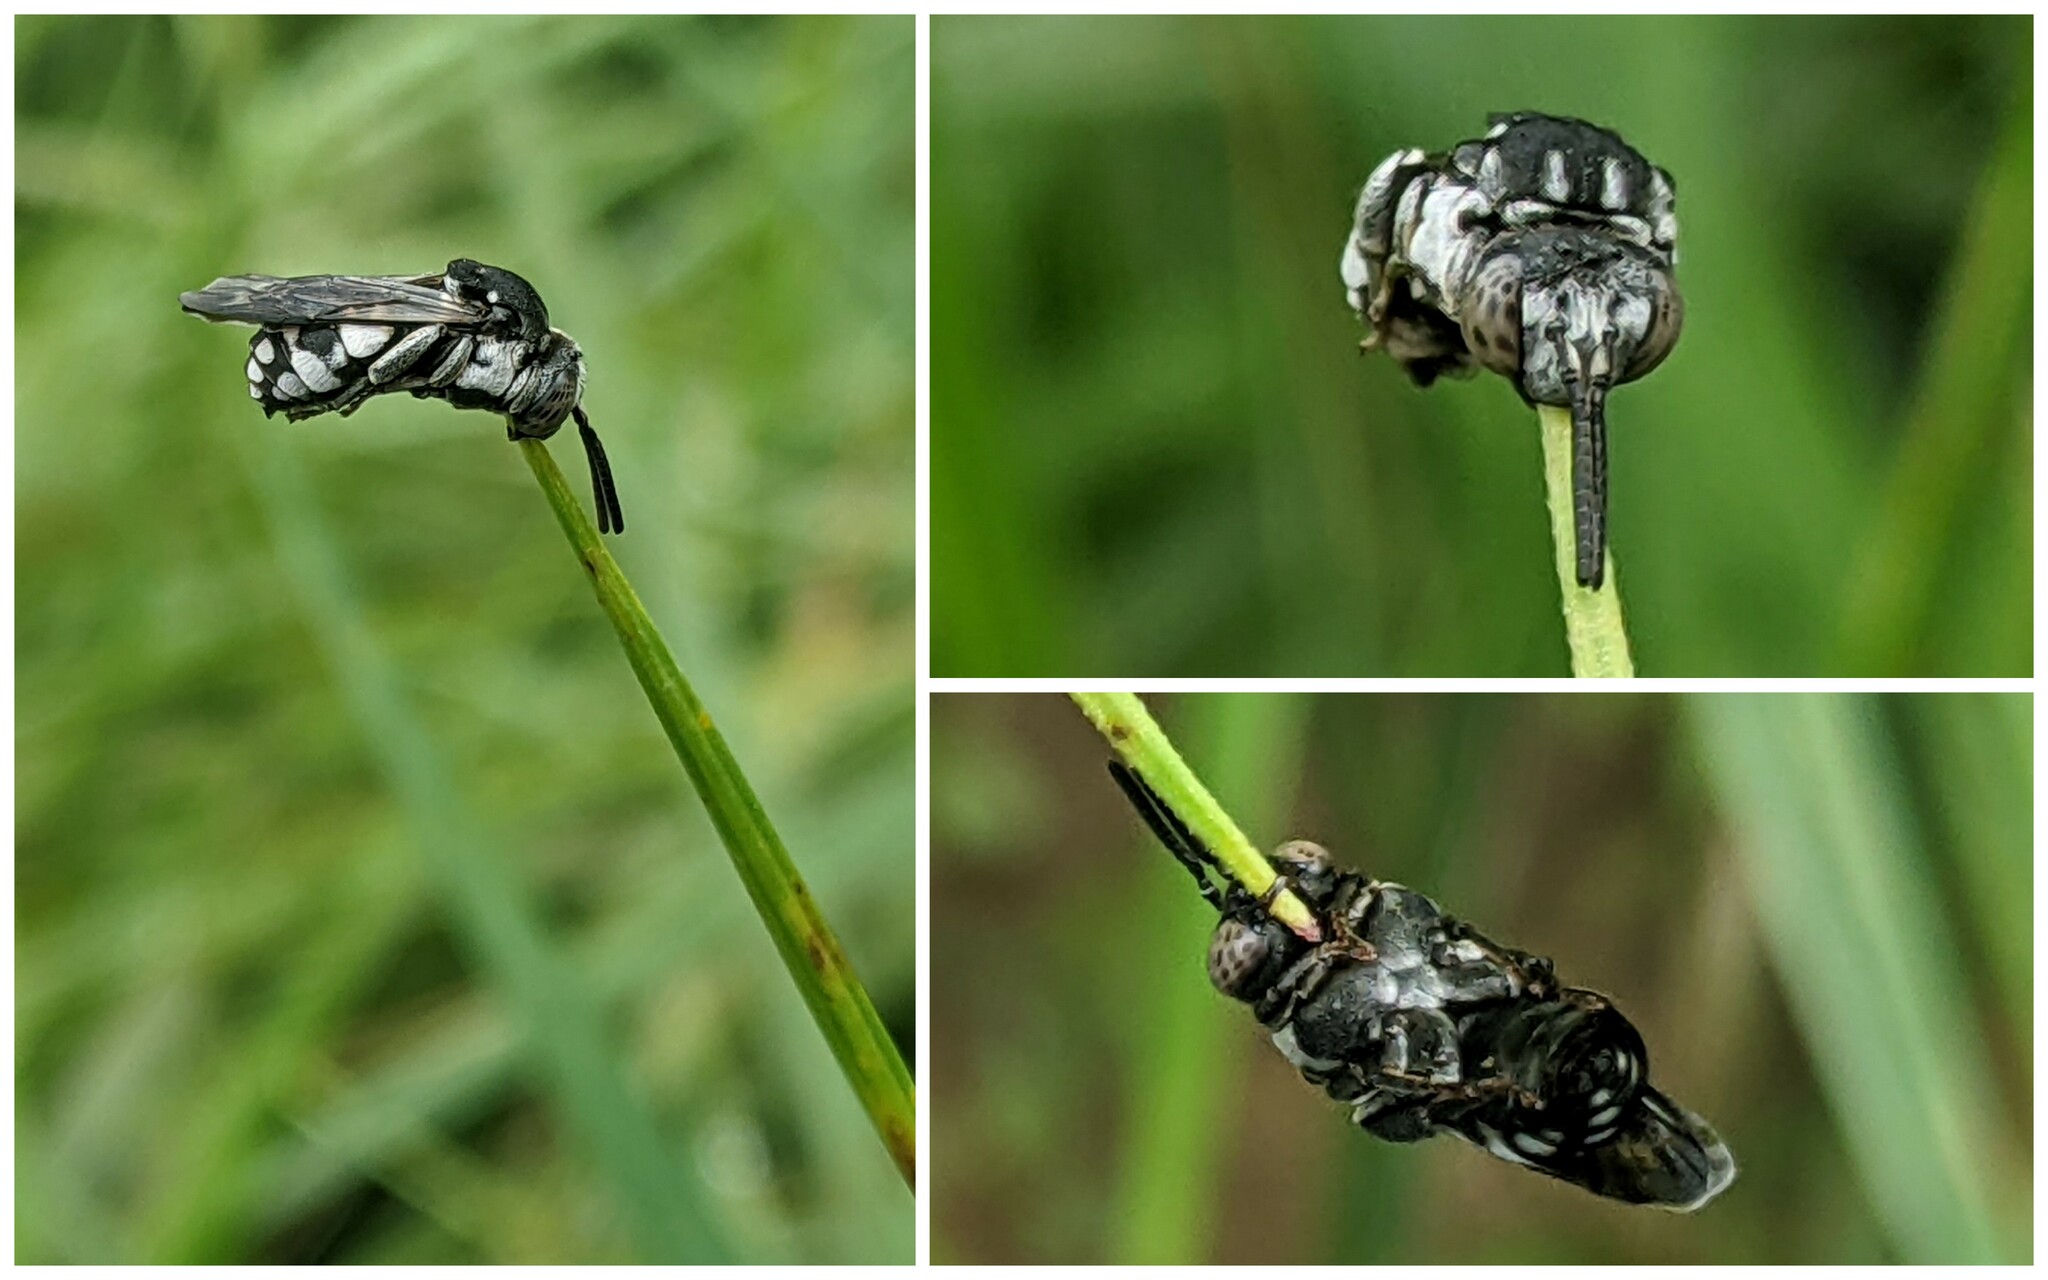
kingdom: Animalia
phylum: Arthropoda
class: Insecta
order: Hymenoptera
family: Apidae
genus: Epeolus
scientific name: Epeolus fallax
